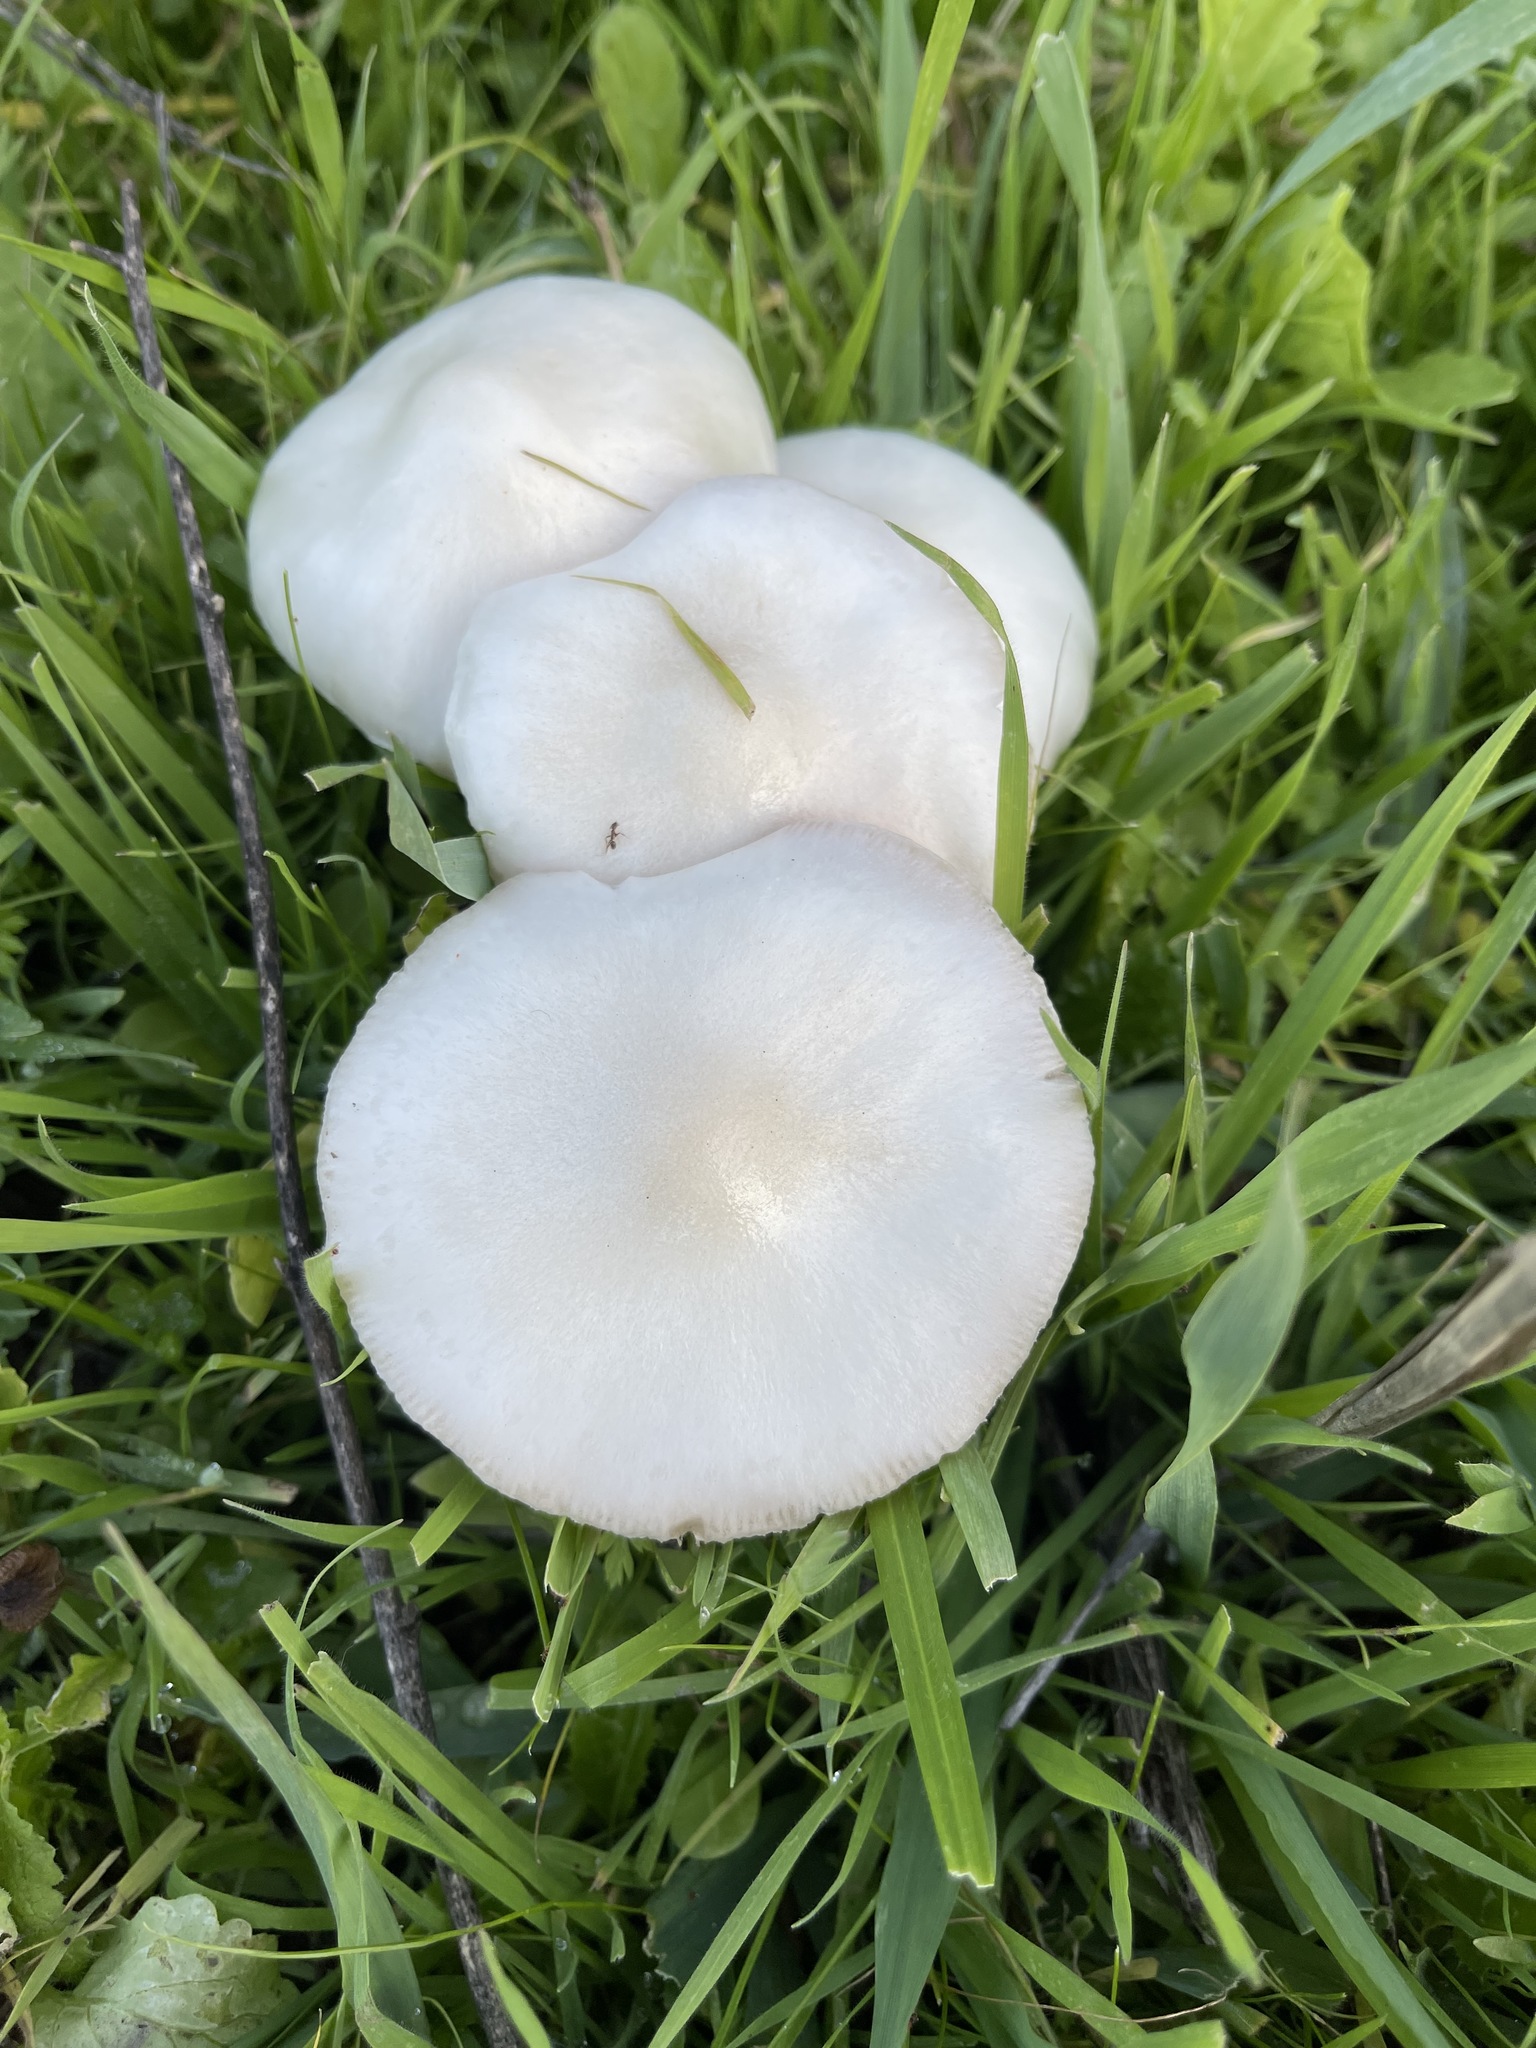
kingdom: Fungi
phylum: Basidiomycota
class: Agaricomycetes
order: Agaricales
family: Pluteaceae
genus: Volvopluteus
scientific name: Volvopluteus gloiocephalus
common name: Stubble rosegill
